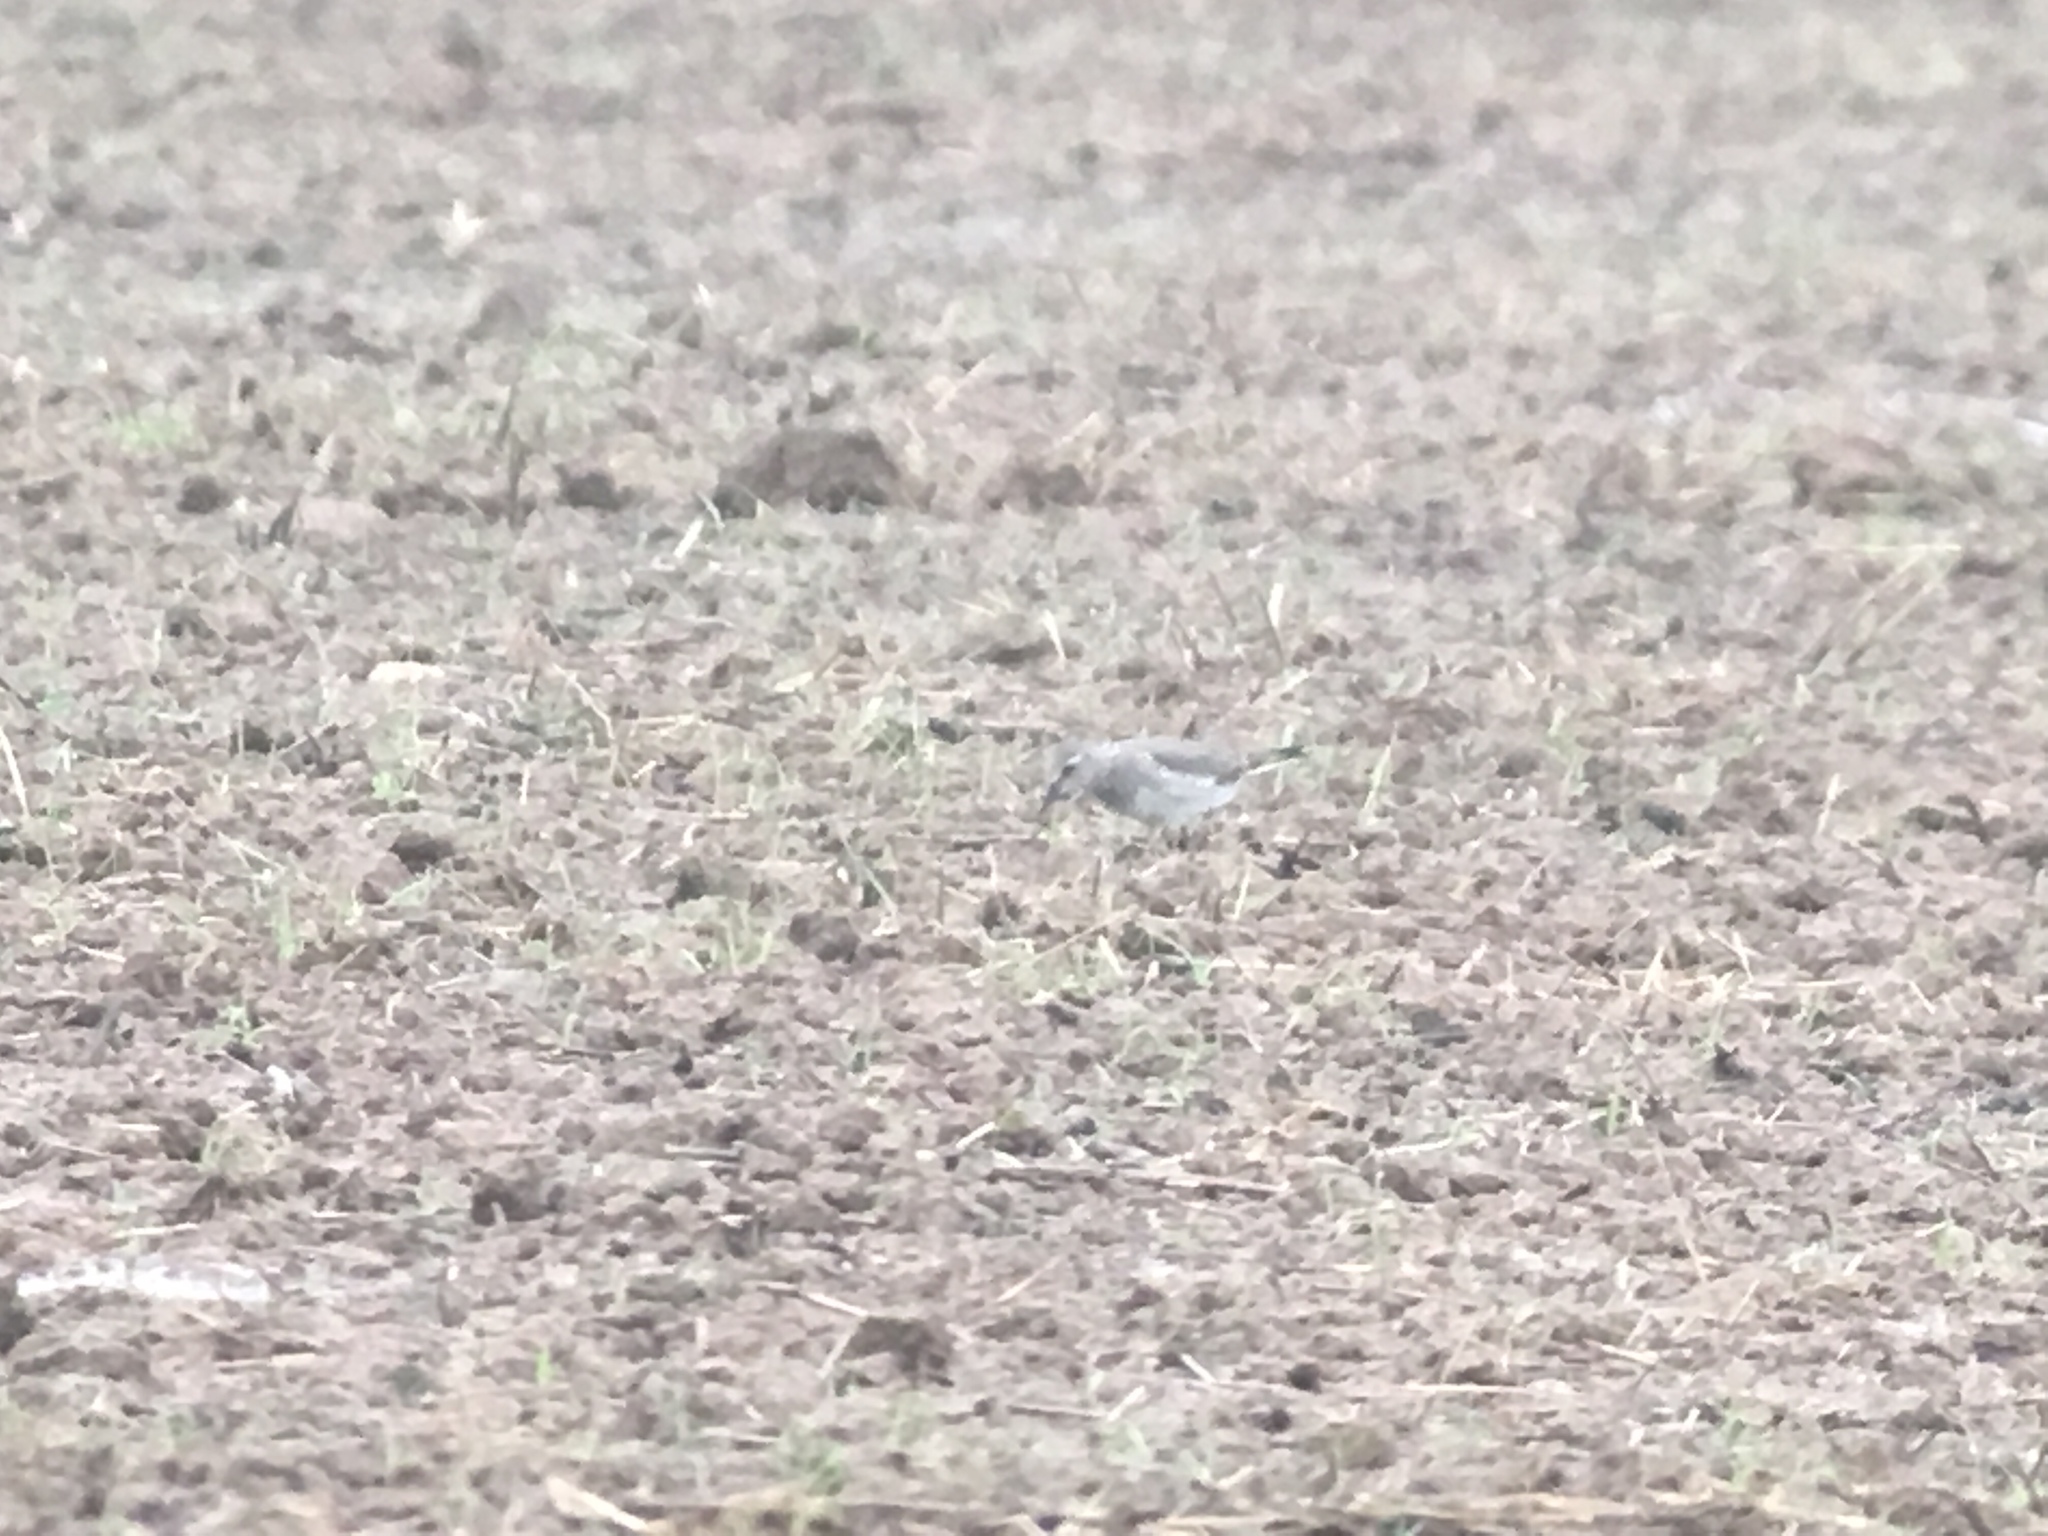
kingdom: Animalia
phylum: Chordata
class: Aves
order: Charadriiformes
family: Scolopacidae
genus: Calidris
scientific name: Calidris
